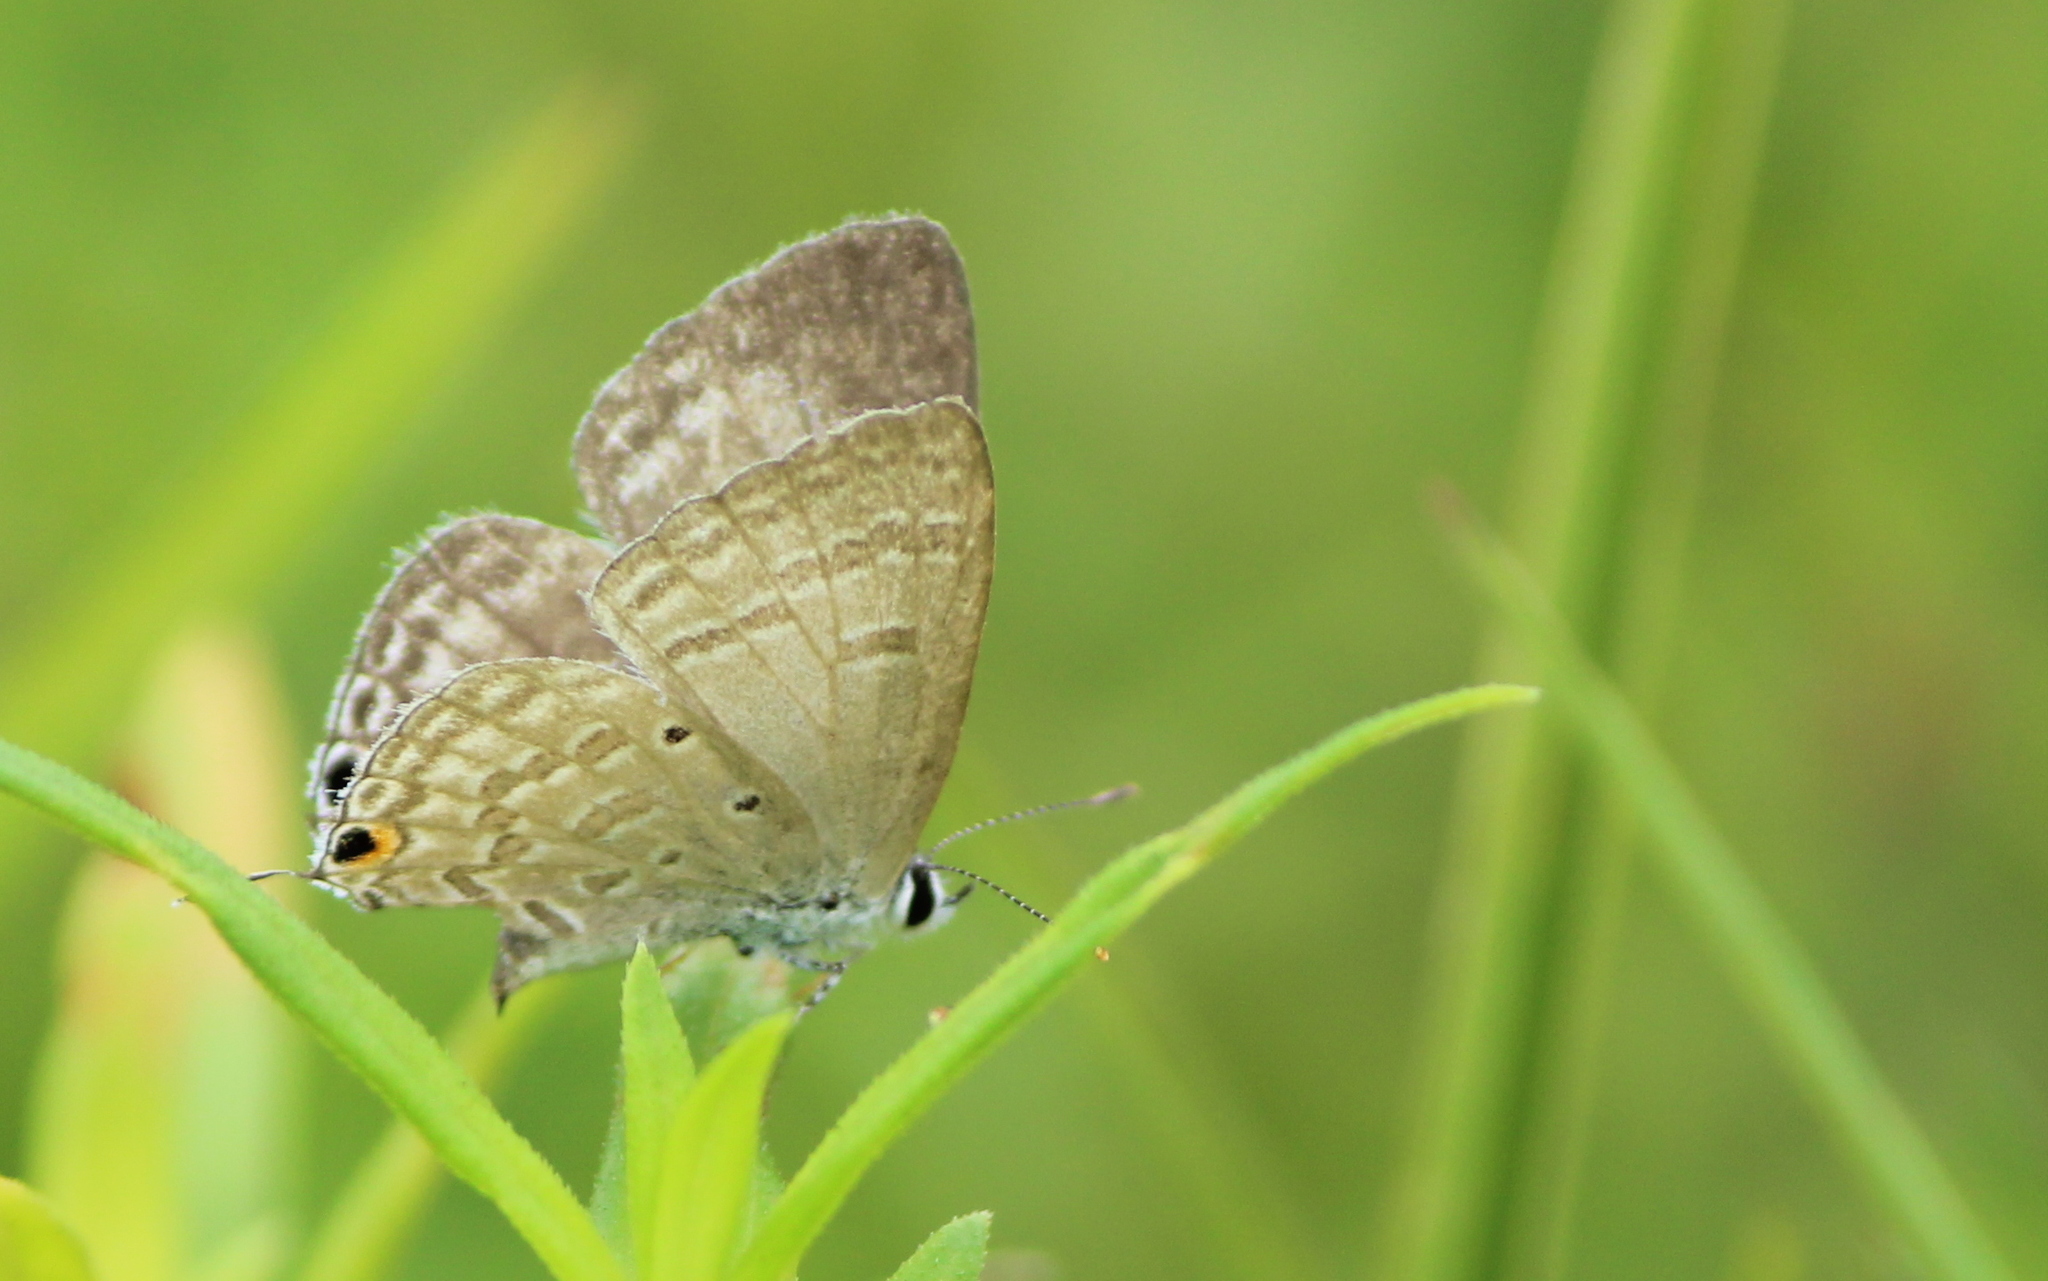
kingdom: Animalia
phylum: Arthropoda
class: Insecta
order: Lepidoptera
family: Lycaenidae
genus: Catochrysops
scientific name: Catochrysops strabo
